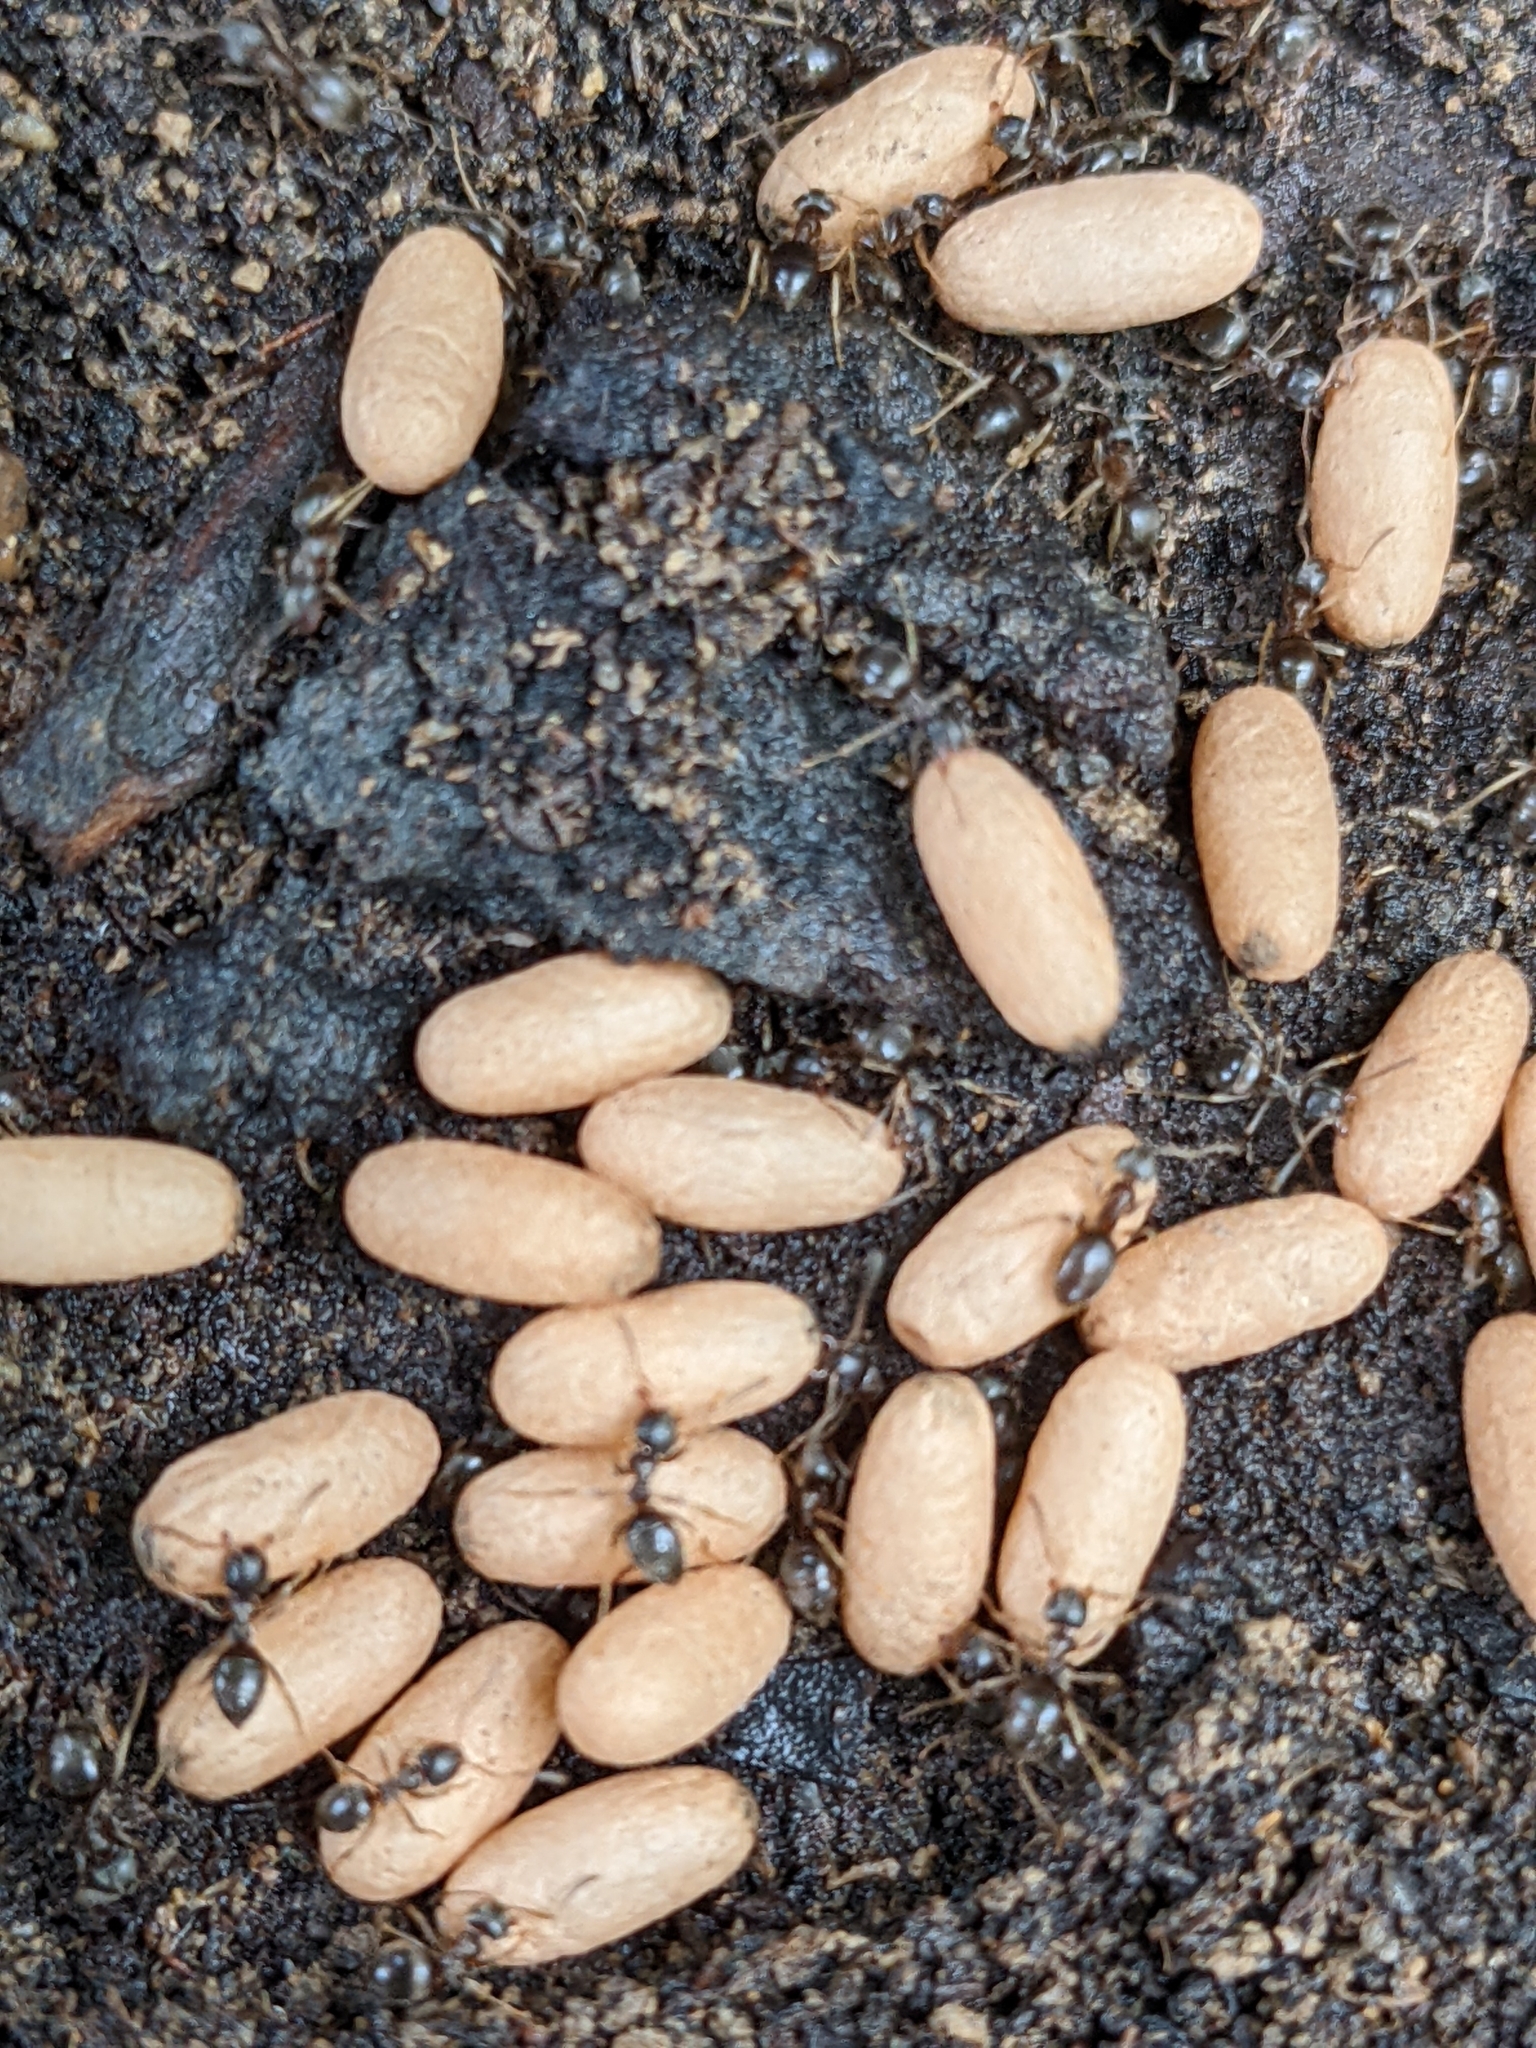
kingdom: Animalia
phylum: Arthropoda
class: Insecta
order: Hymenoptera
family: Formicidae
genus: Lasius
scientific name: Lasius americanus
